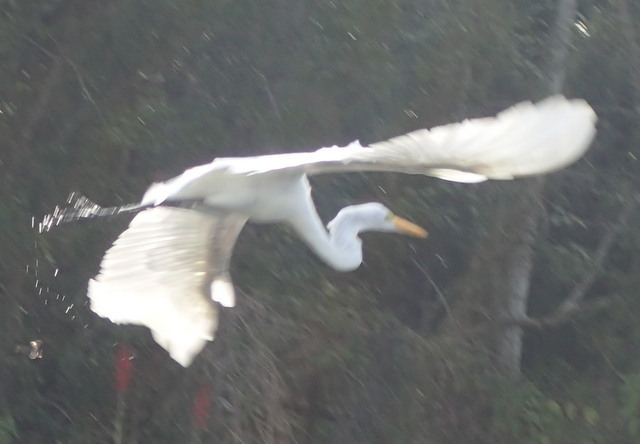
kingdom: Animalia
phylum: Chordata
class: Aves
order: Pelecaniformes
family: Ardeidae
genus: Ardea
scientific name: Ardea alba
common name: Great egret
